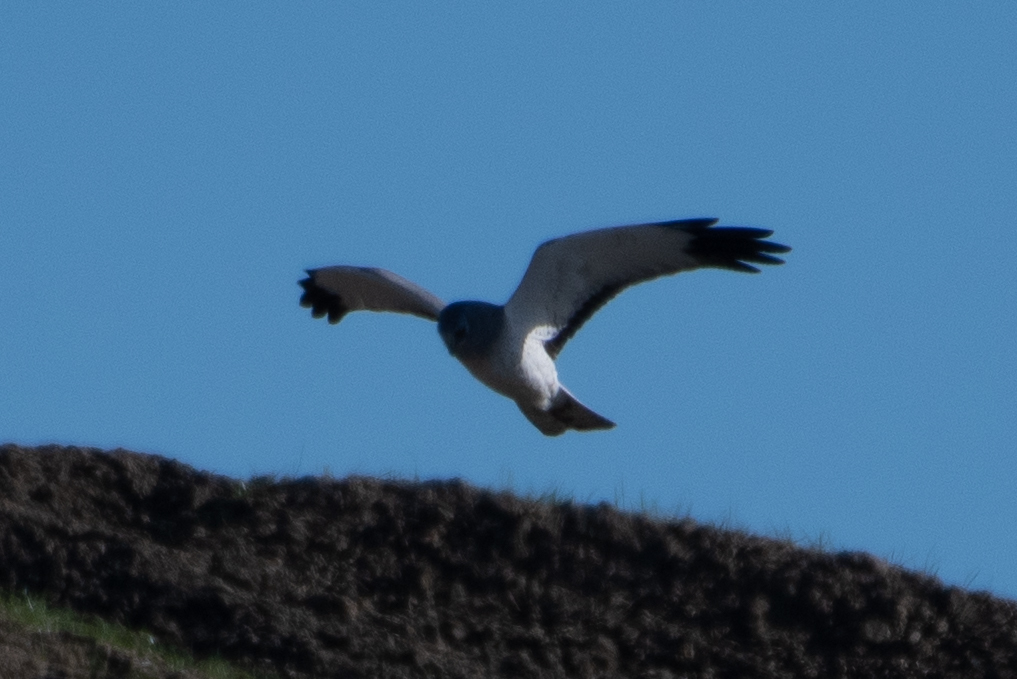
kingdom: Animalia
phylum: Chordata
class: Aves
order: Accipitriformes
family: Accipitridae
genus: Circus
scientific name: Circus cyaneus
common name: Hen harrier
